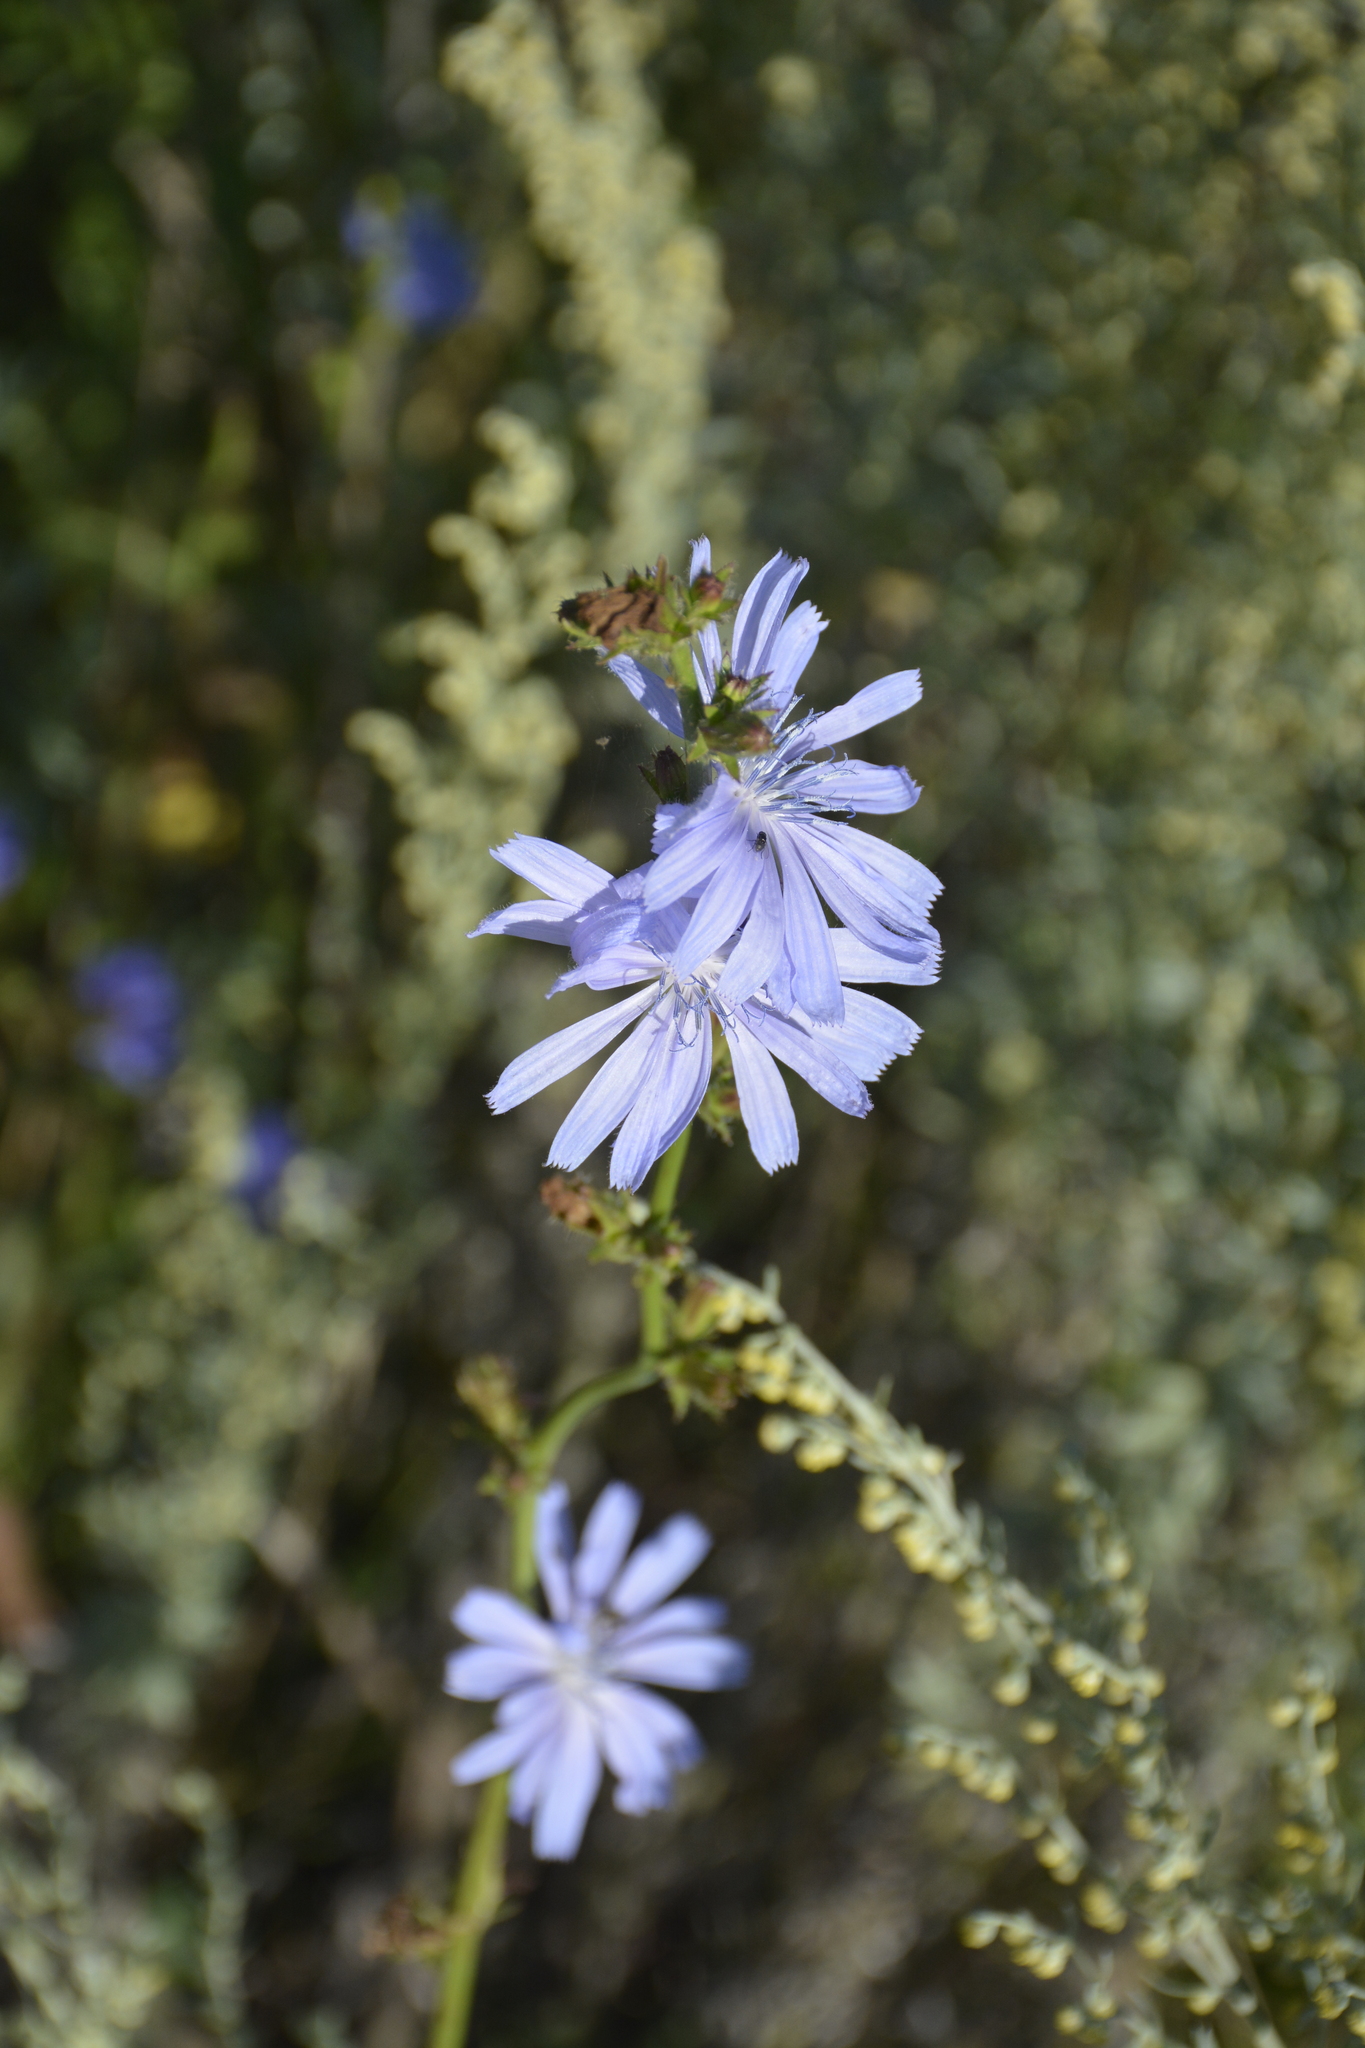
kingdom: Plantae
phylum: Tracheophyta
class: Magnoliopsida
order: Asterales
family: Asteraceae
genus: Cichorium
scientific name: Cichorium intybus
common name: Chicory
